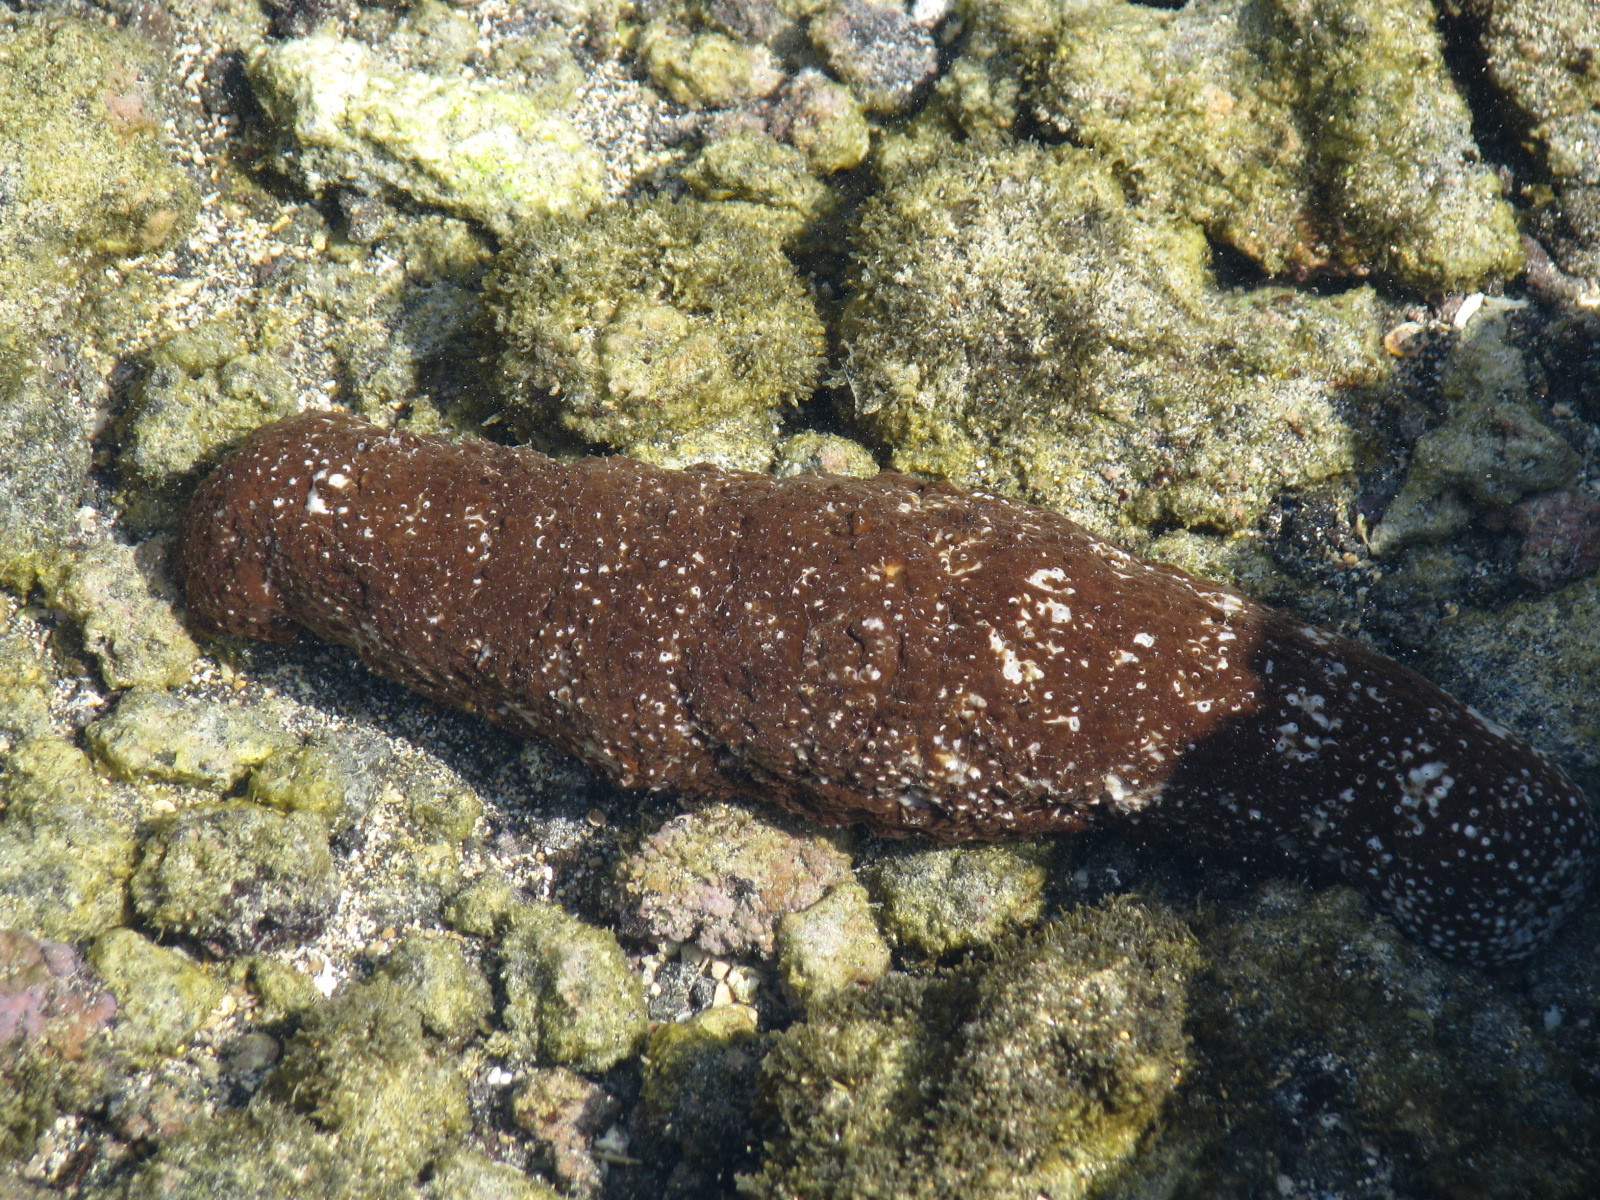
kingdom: Animalia
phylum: Echinodermata
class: Holothuroidea
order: Holothuriida
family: Holothuriidae
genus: Actinopyga
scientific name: Actinopyga varians
